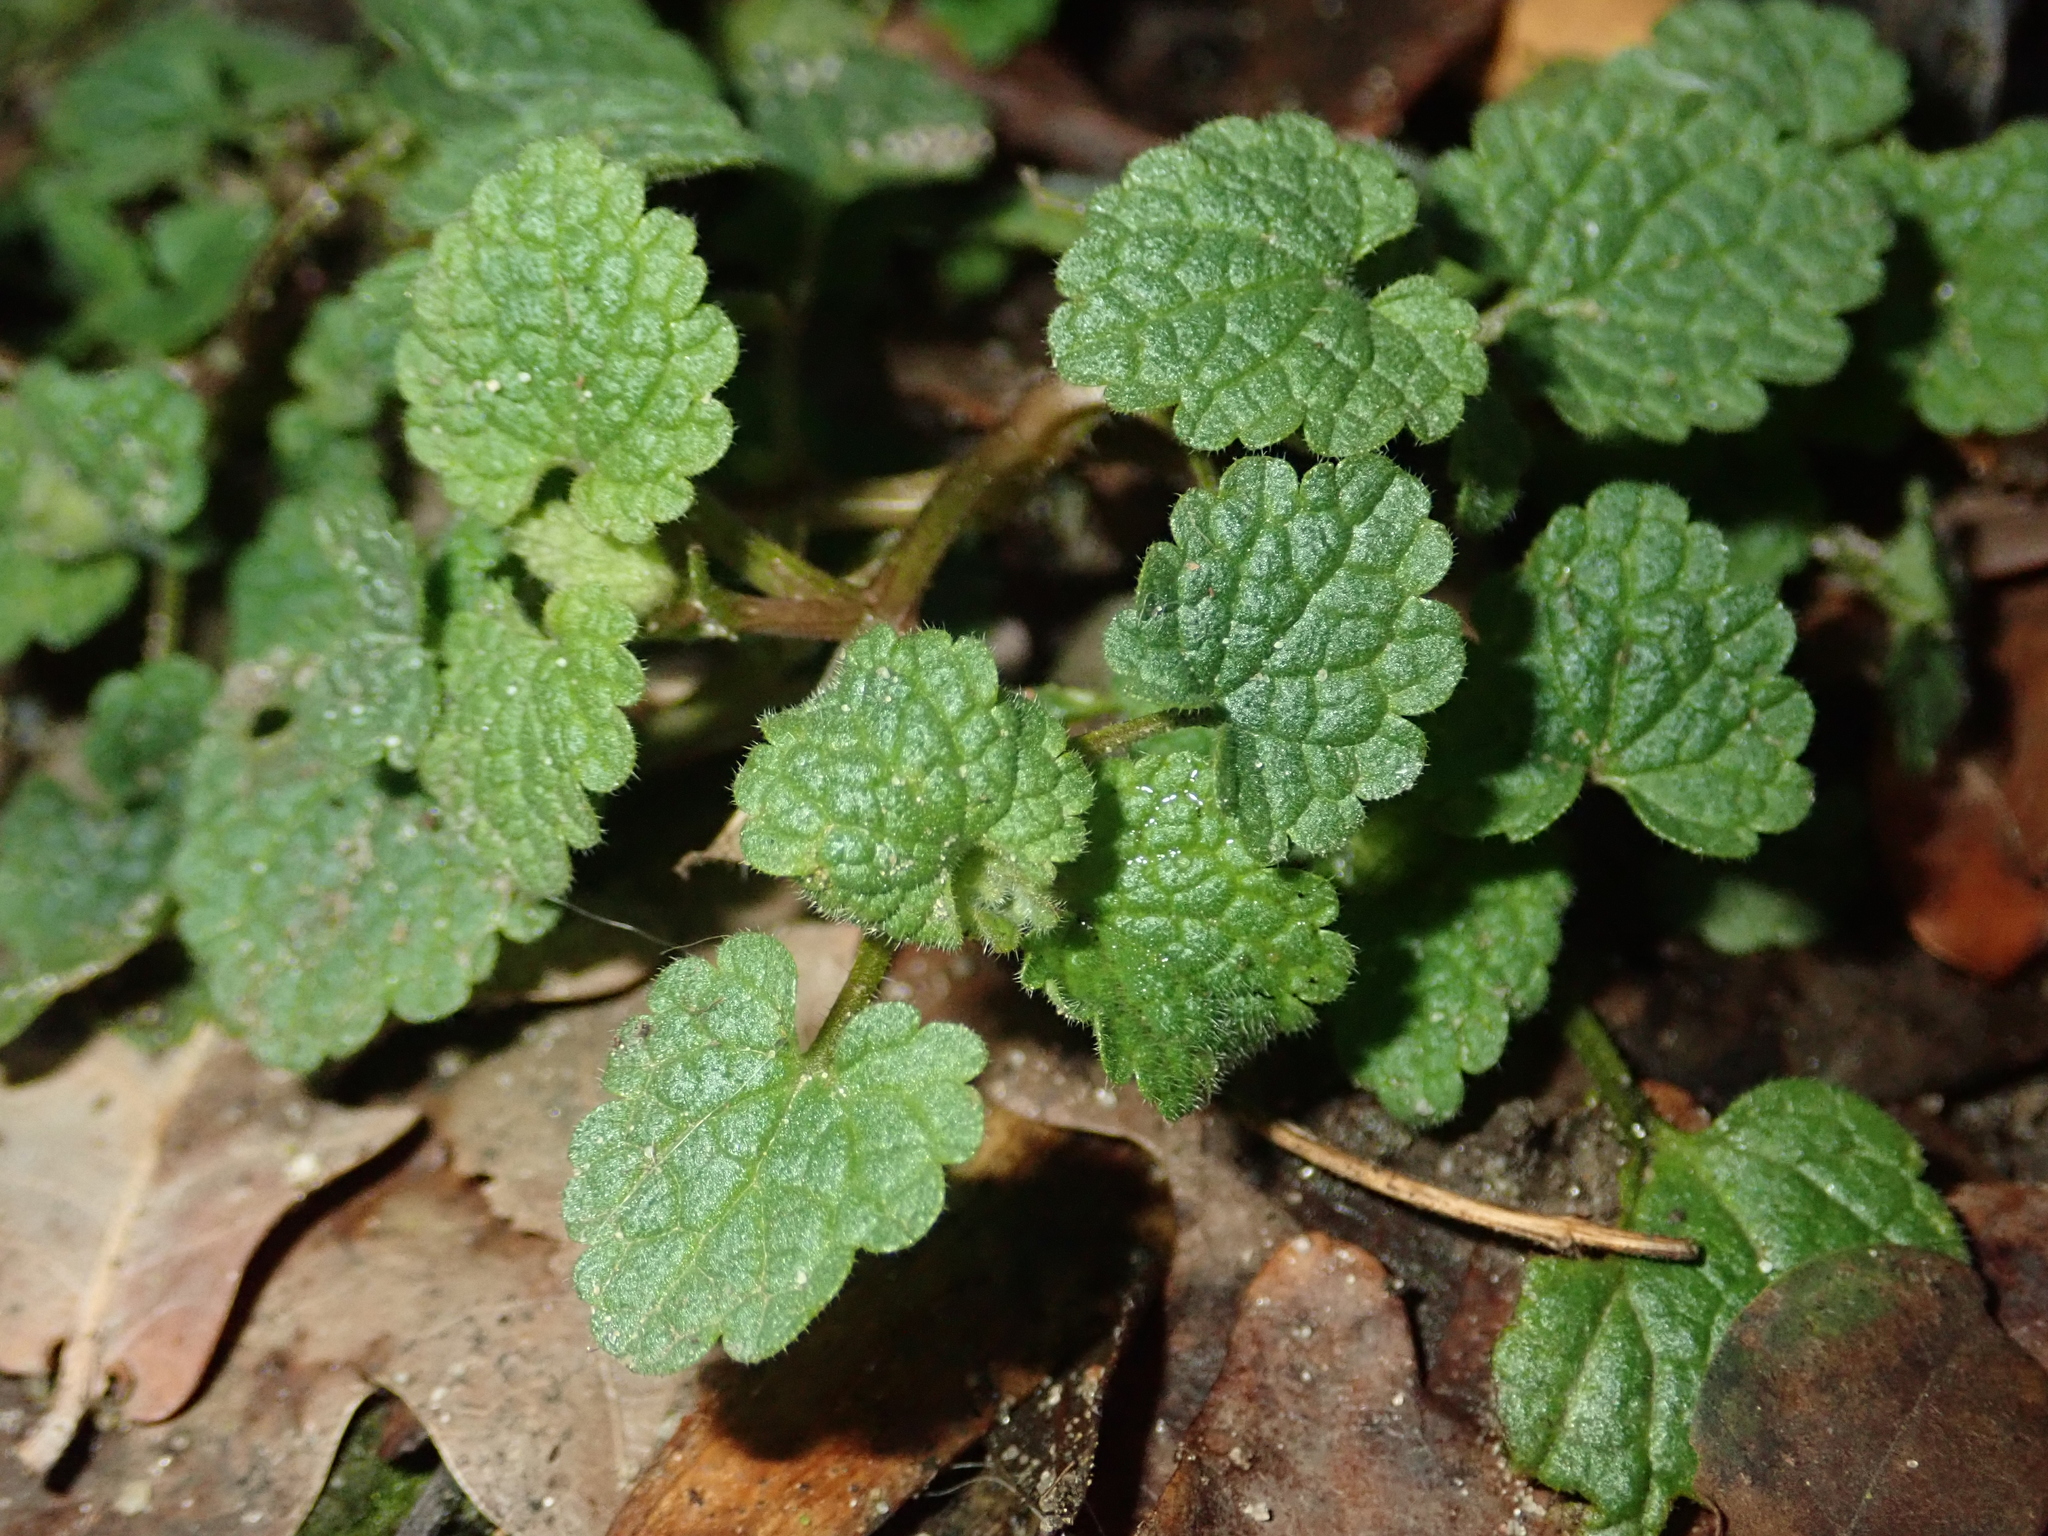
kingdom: Plantae
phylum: Tracheophyta
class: Magnoliopsida
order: Lamiales
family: Lamiaceae
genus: Lamium
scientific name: Lamium purpureum
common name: Red dead-nettle
